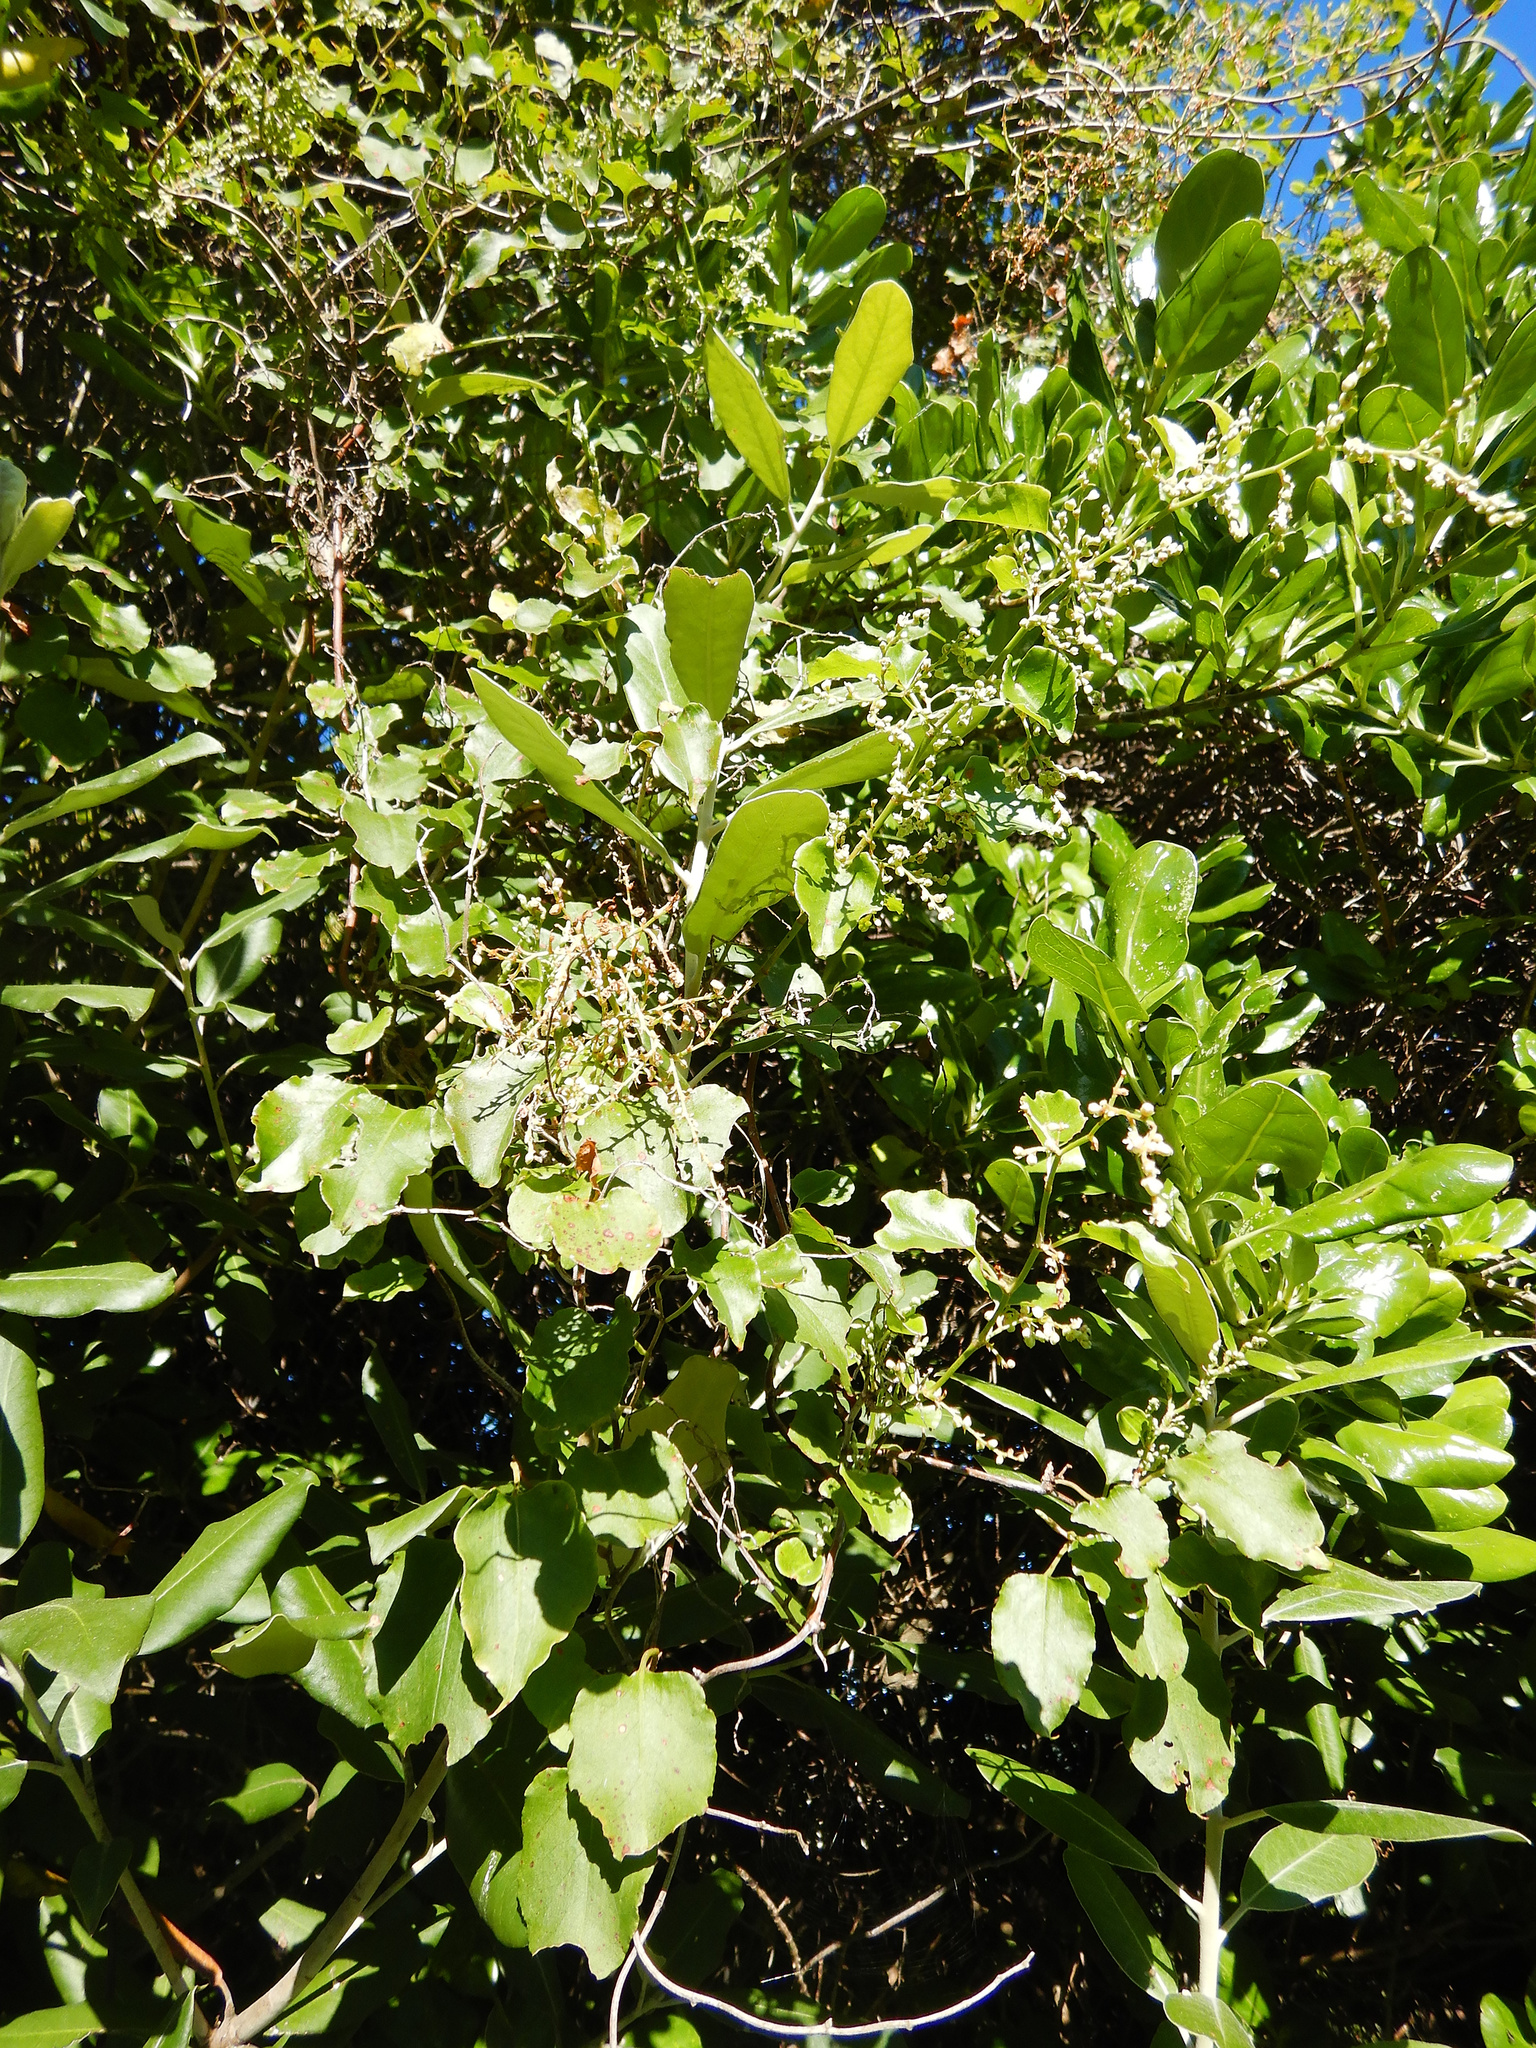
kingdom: Plantae
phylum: Tracheophyta
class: Magnoliopsida
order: Caryophyllales
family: Polygonaceae
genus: Muehlenbeckia
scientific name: Muehlenbeckia australis
